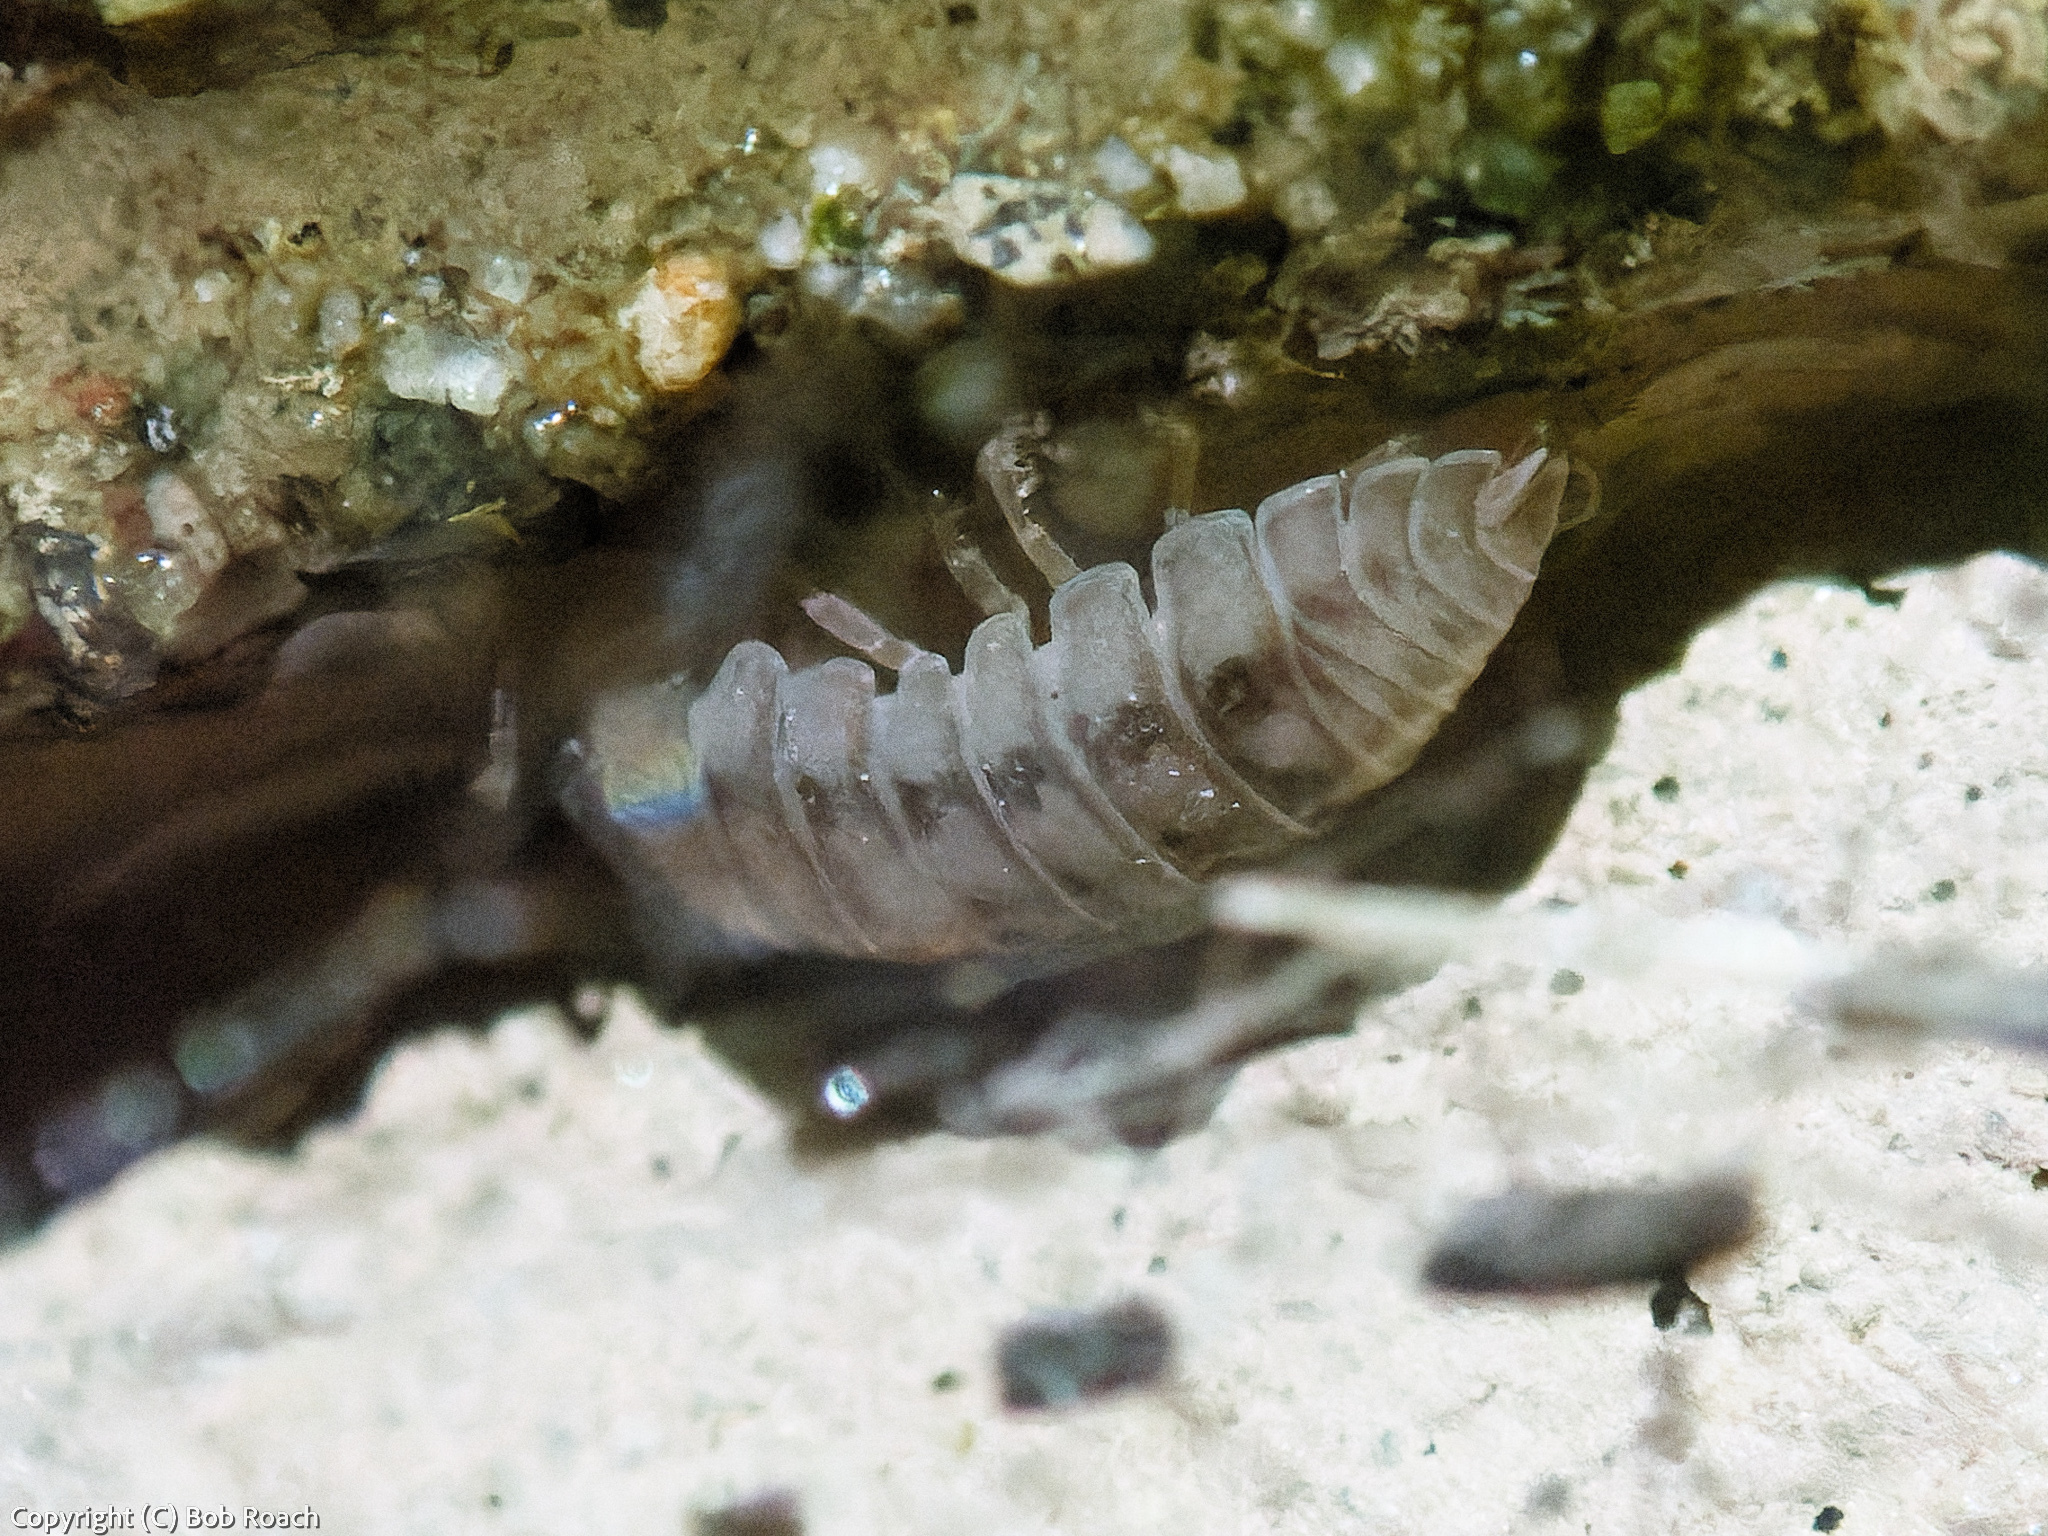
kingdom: Animalia
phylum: Arthropoda
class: Malacostraca
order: Isopoda
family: Armadillidiidae
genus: Armadillidium
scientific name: Armadillidium nasatum
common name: Isopod
